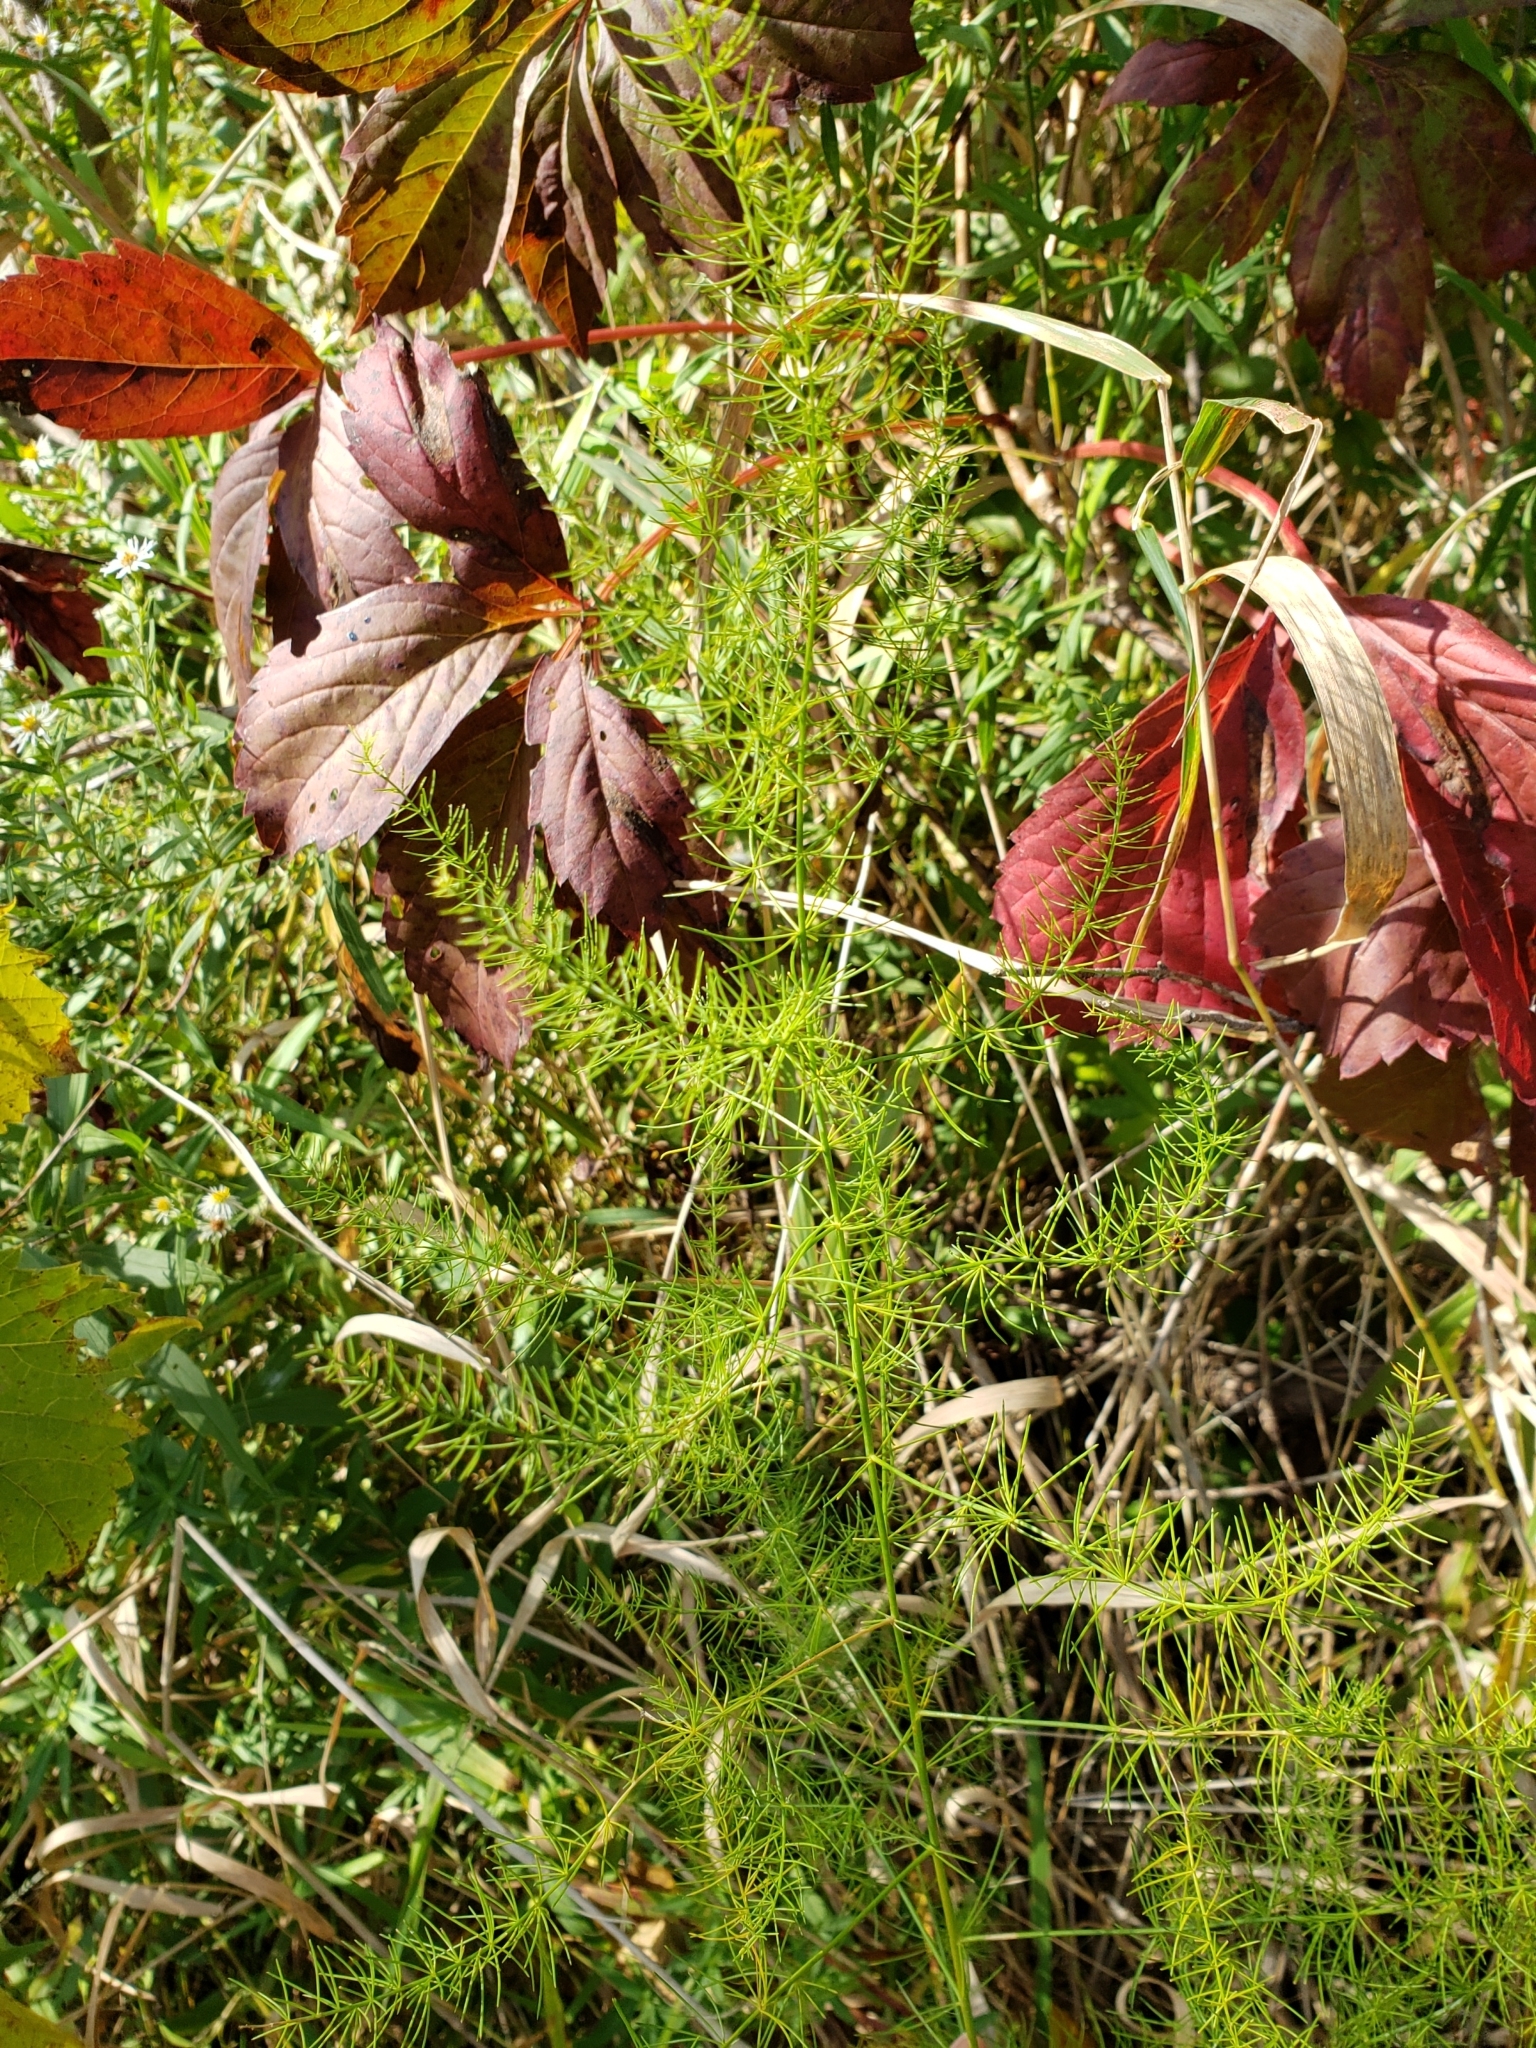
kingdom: Plantae
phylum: Tracheophyta
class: Liliopsida
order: Asparagales
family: Asparagaceae
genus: Asparagus
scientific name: Asparagus officinalis
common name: Garden asparagus
